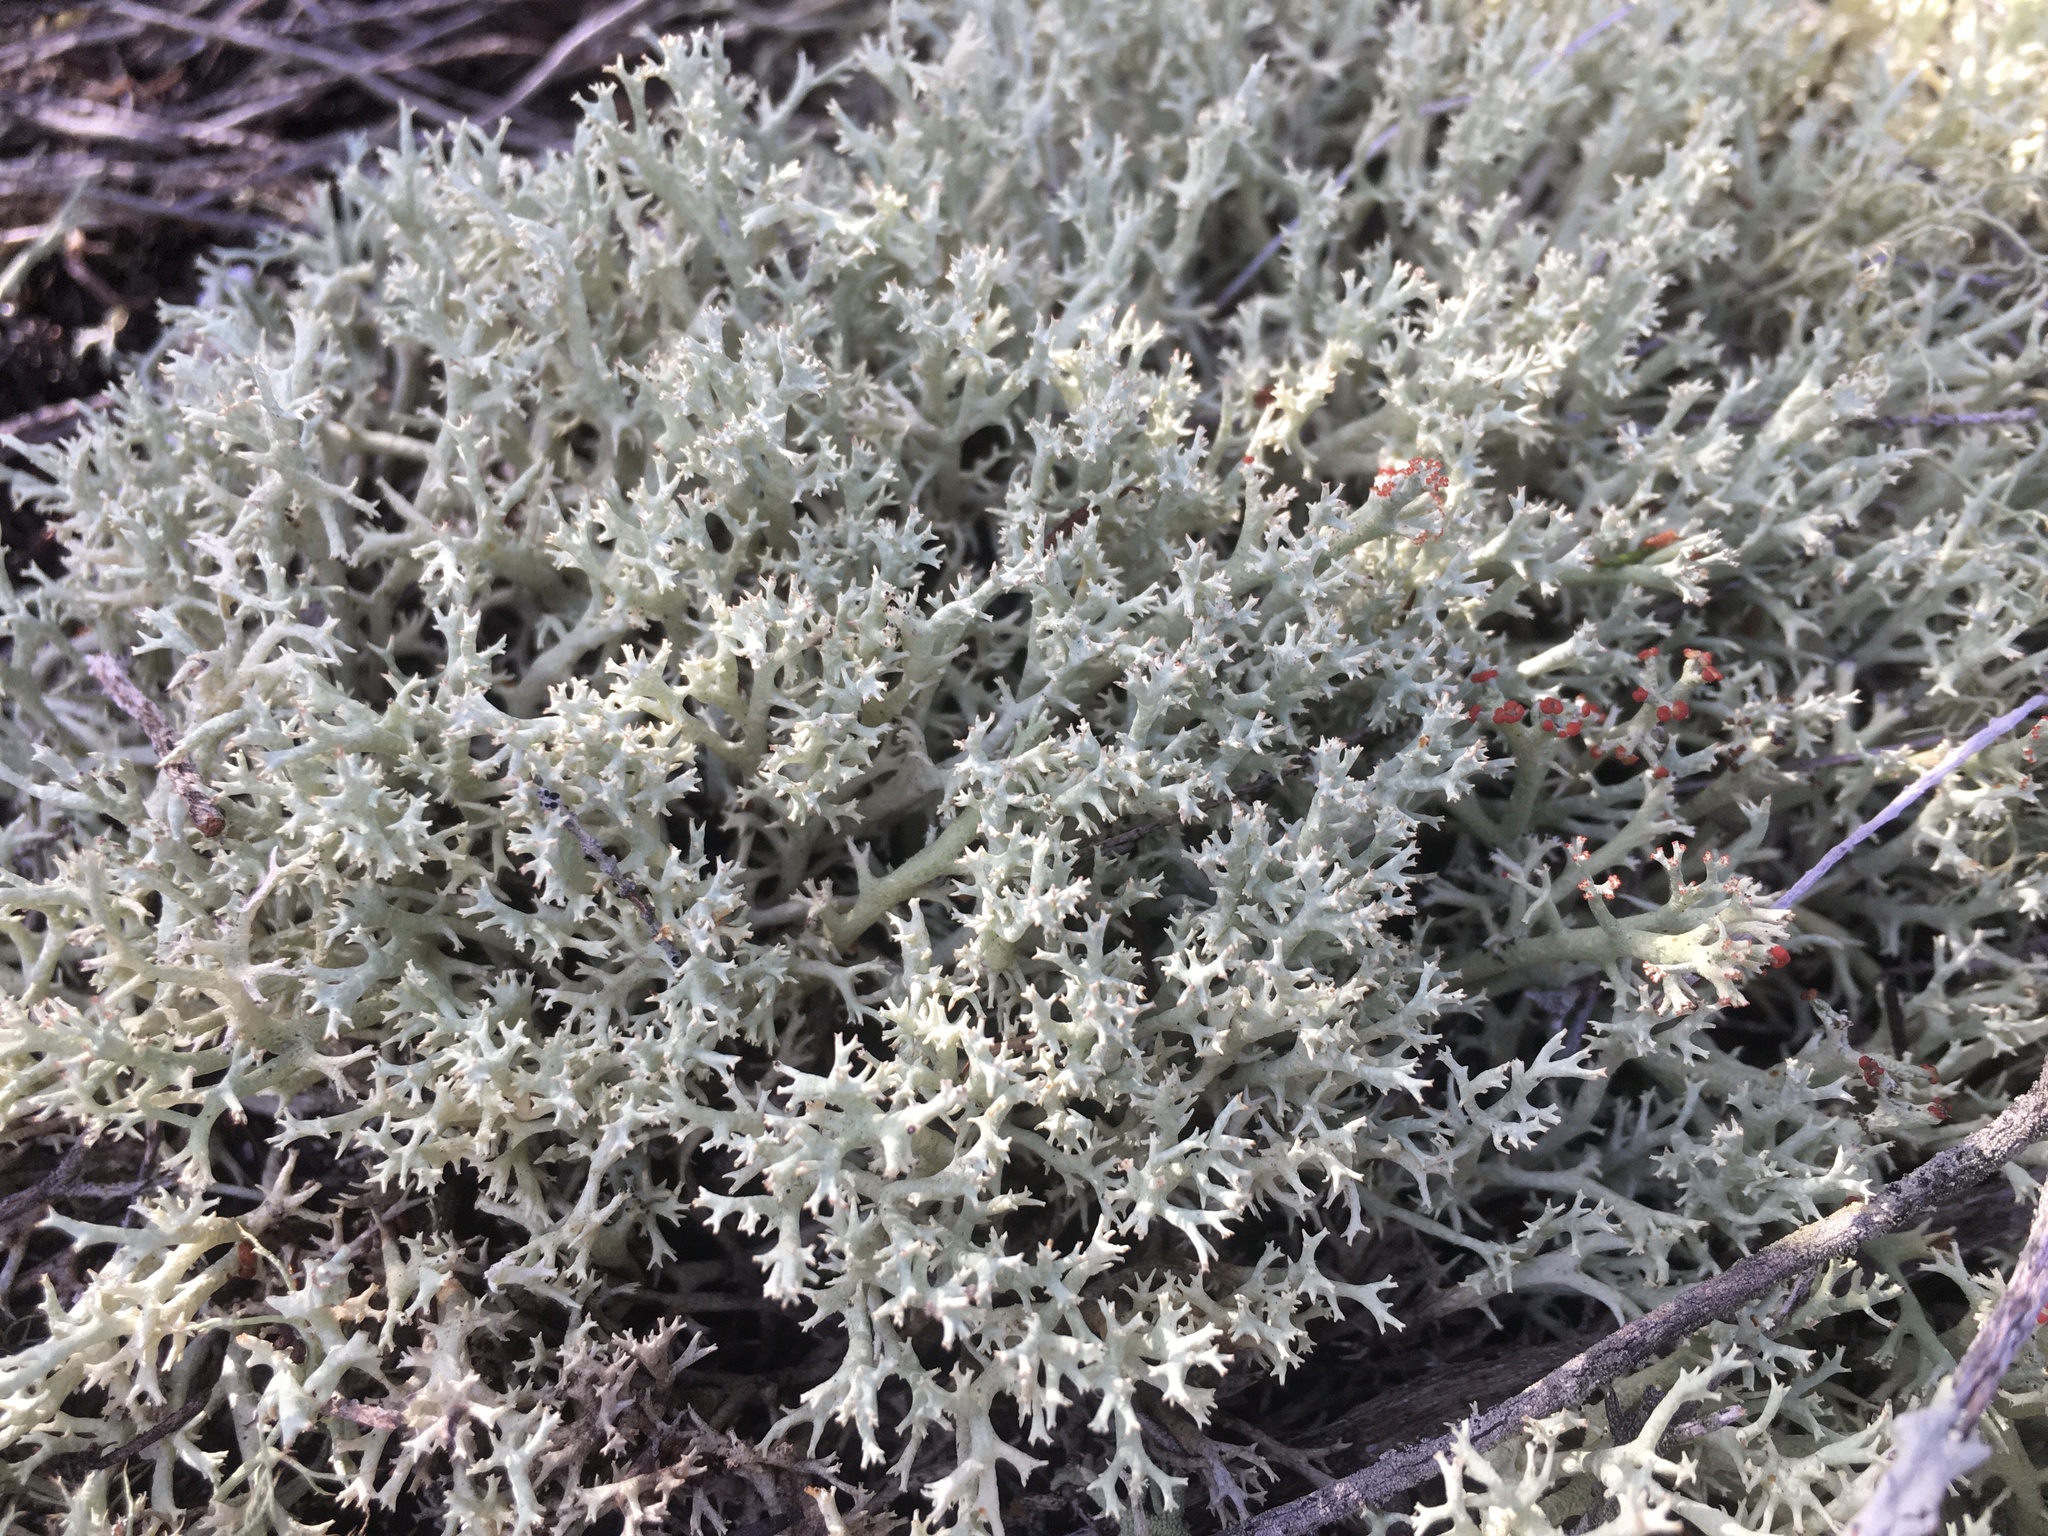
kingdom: Fungi
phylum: Ascomycota
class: Lecanoromycetes
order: Lecanorales
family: Cladoniaceae
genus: Cladonia
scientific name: Cladonia dimorphoclada
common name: Prostrate thorn cladonia
